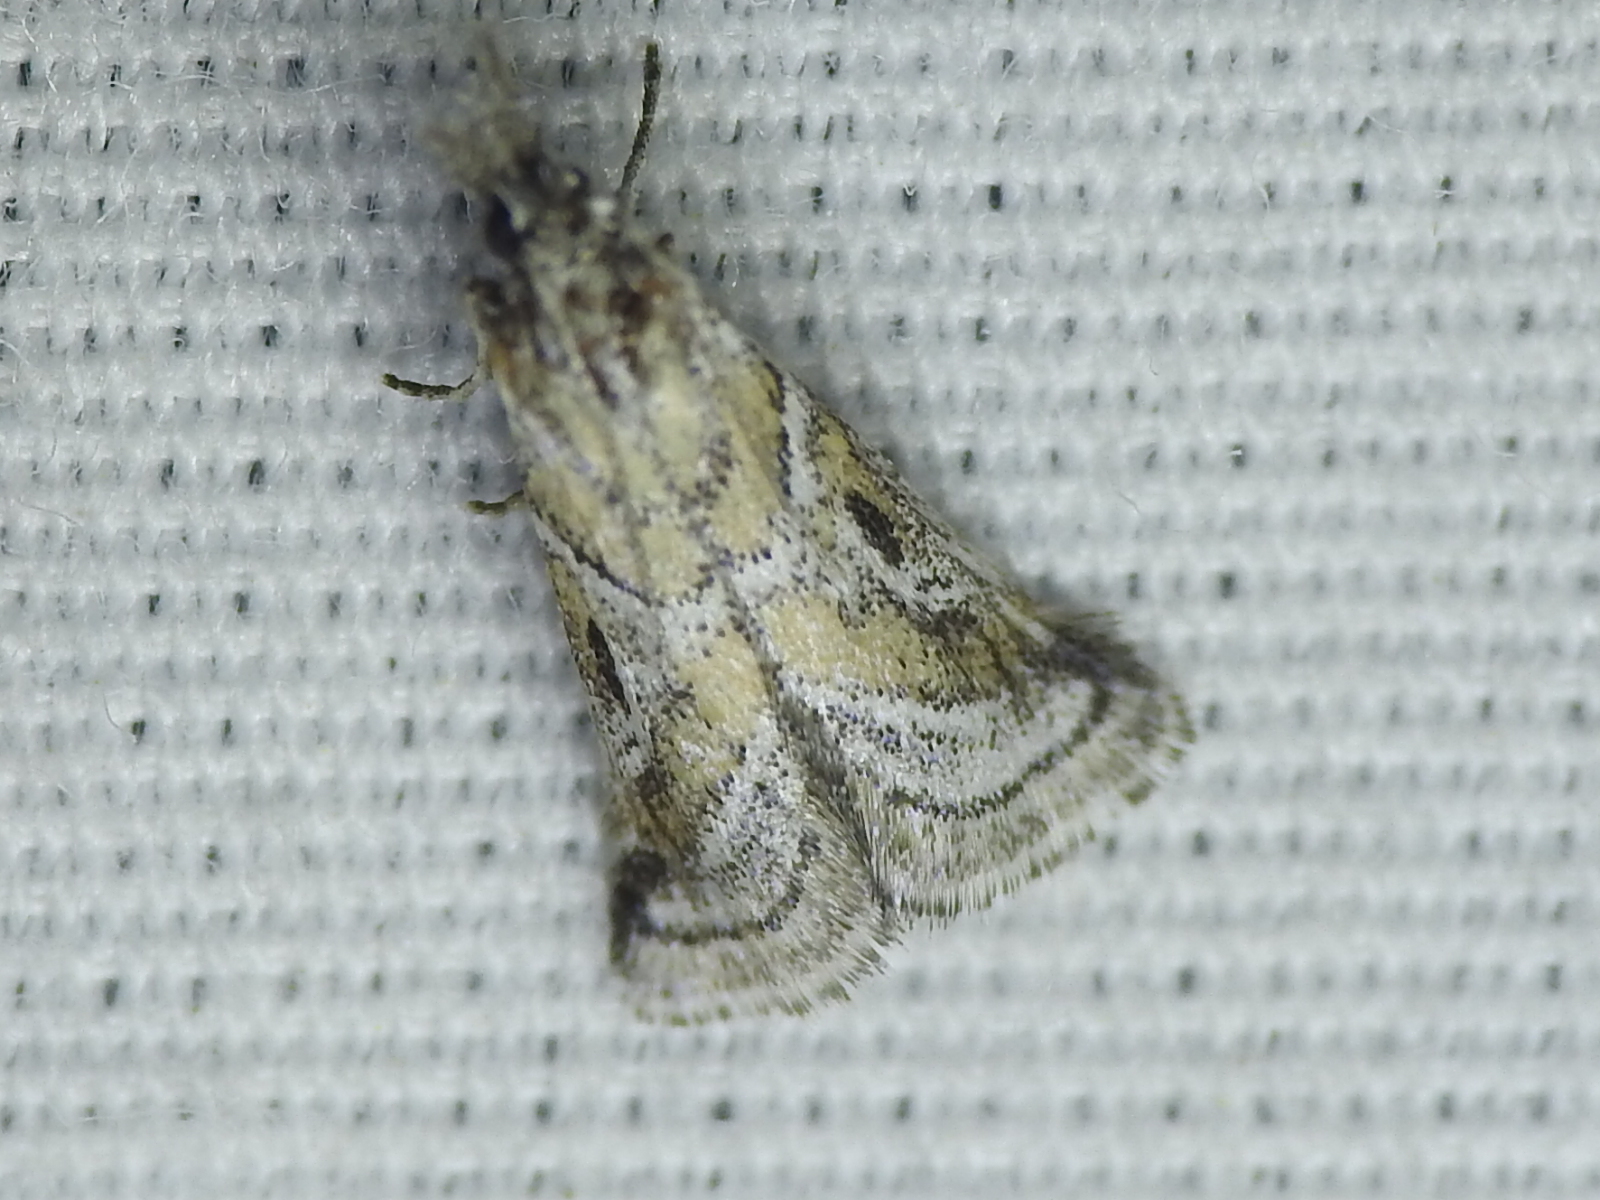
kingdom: Animalia
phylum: Arthropoda
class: Insecta
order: Lepidoptera
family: Pyralidae
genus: Alpheias
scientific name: Alpheias Decaturia pectinalis
